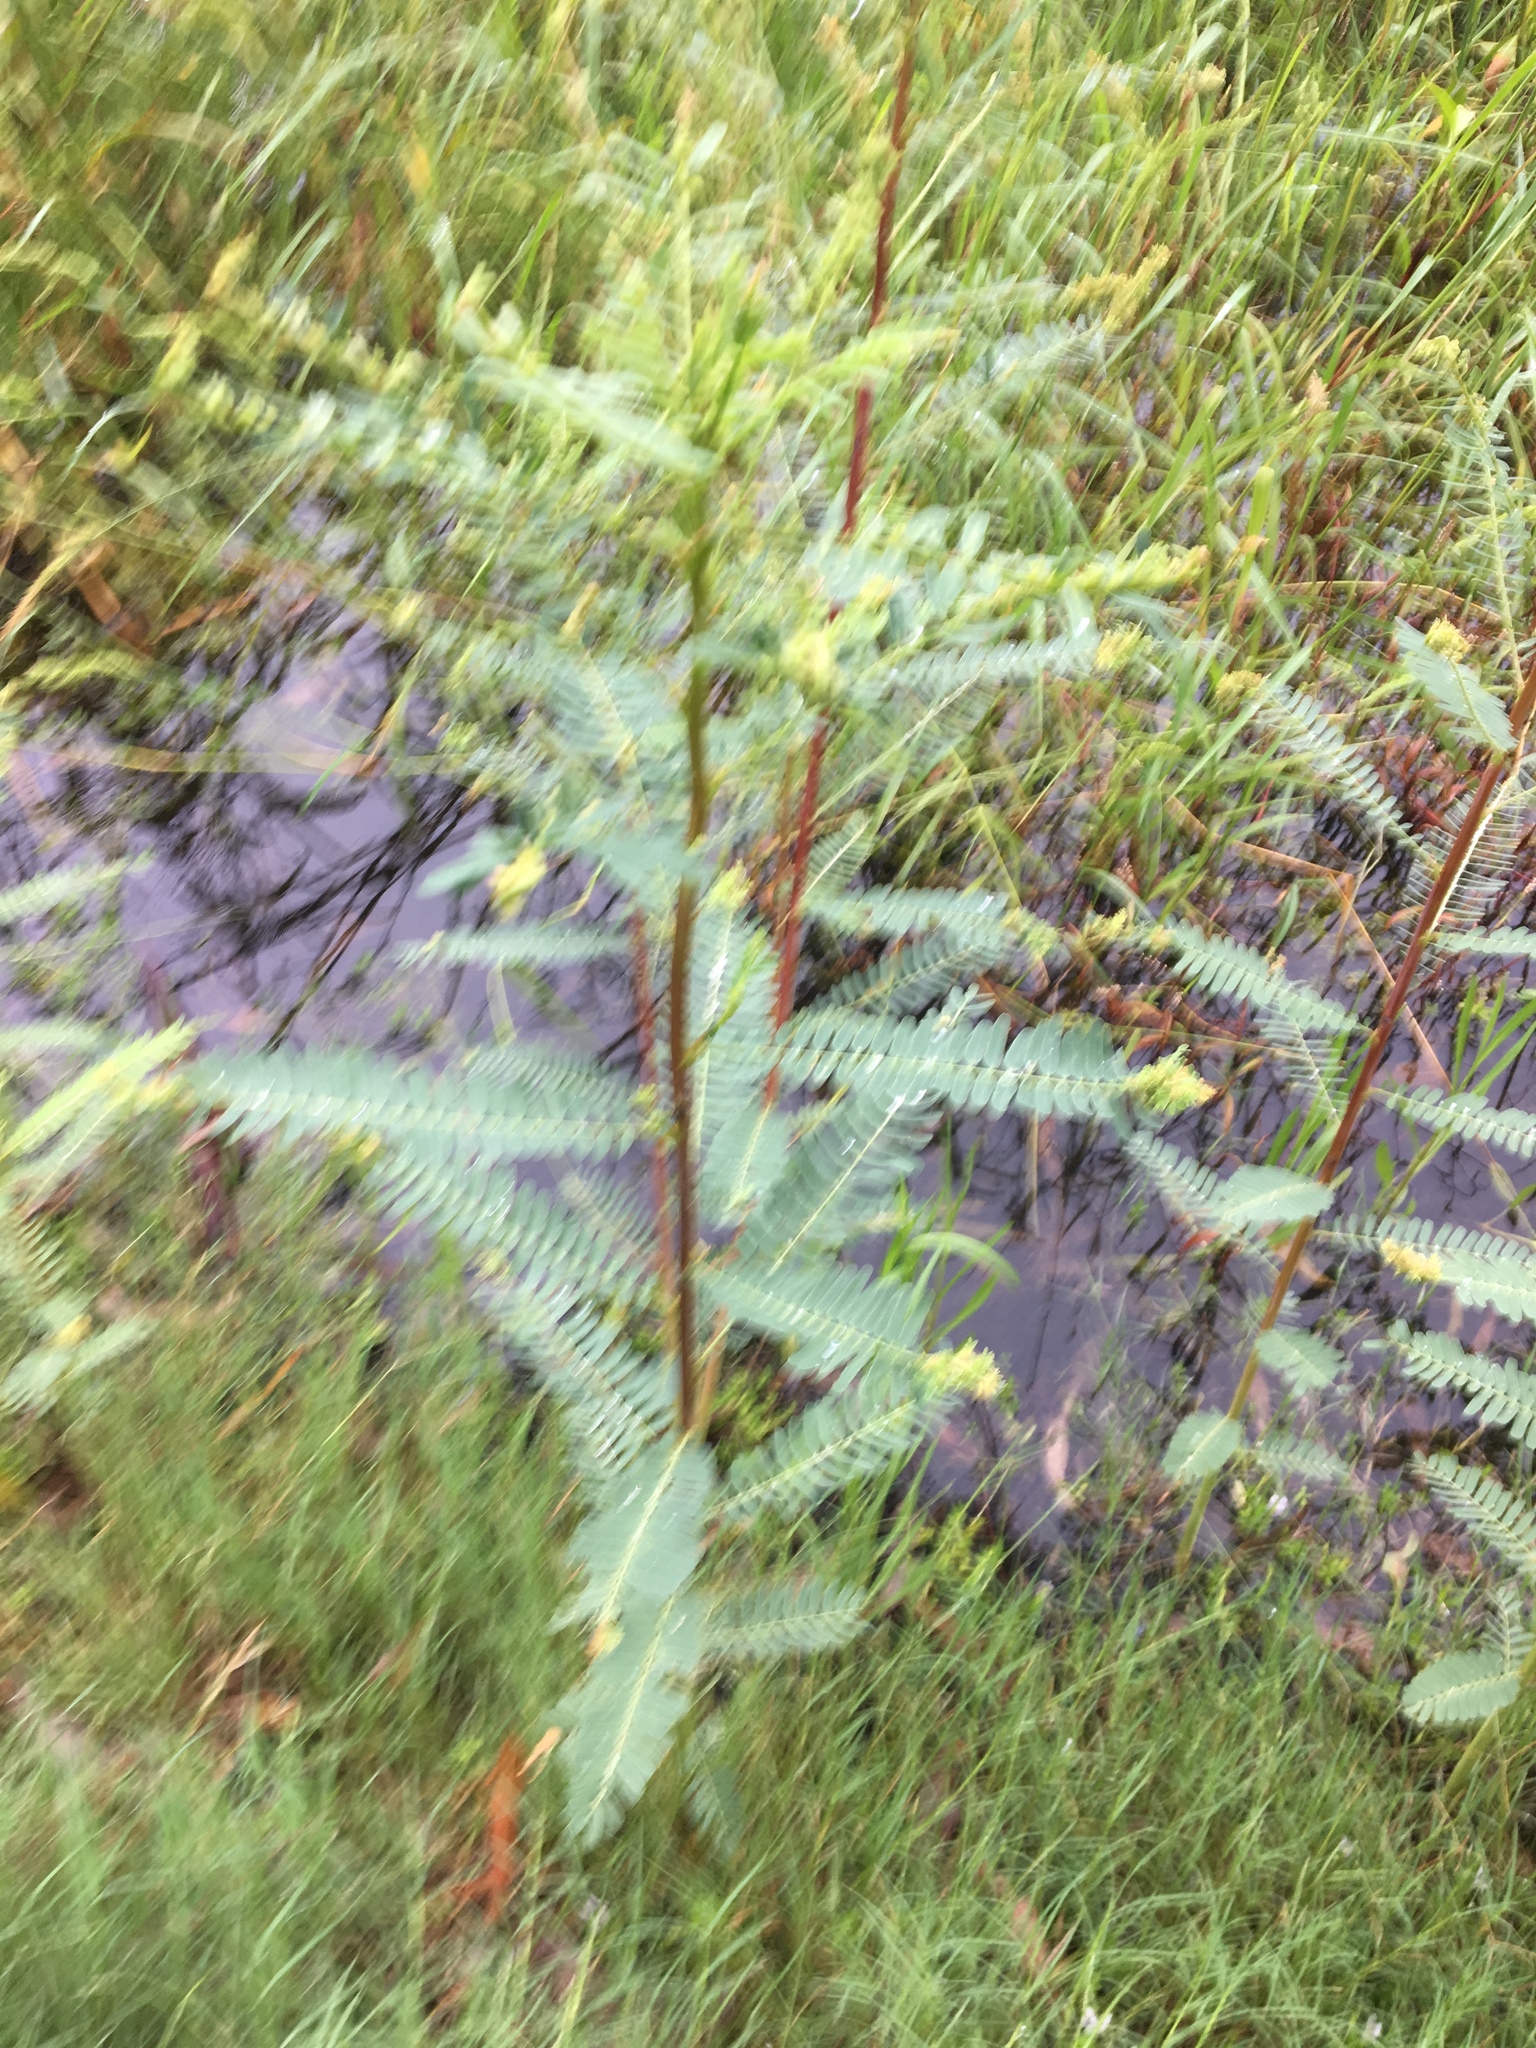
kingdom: Plantae
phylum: Tracheophyta
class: Magnoliopsida
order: Fabales
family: Fabaceae
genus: Sesbania
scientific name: Sesbania cannabina
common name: Canicha
